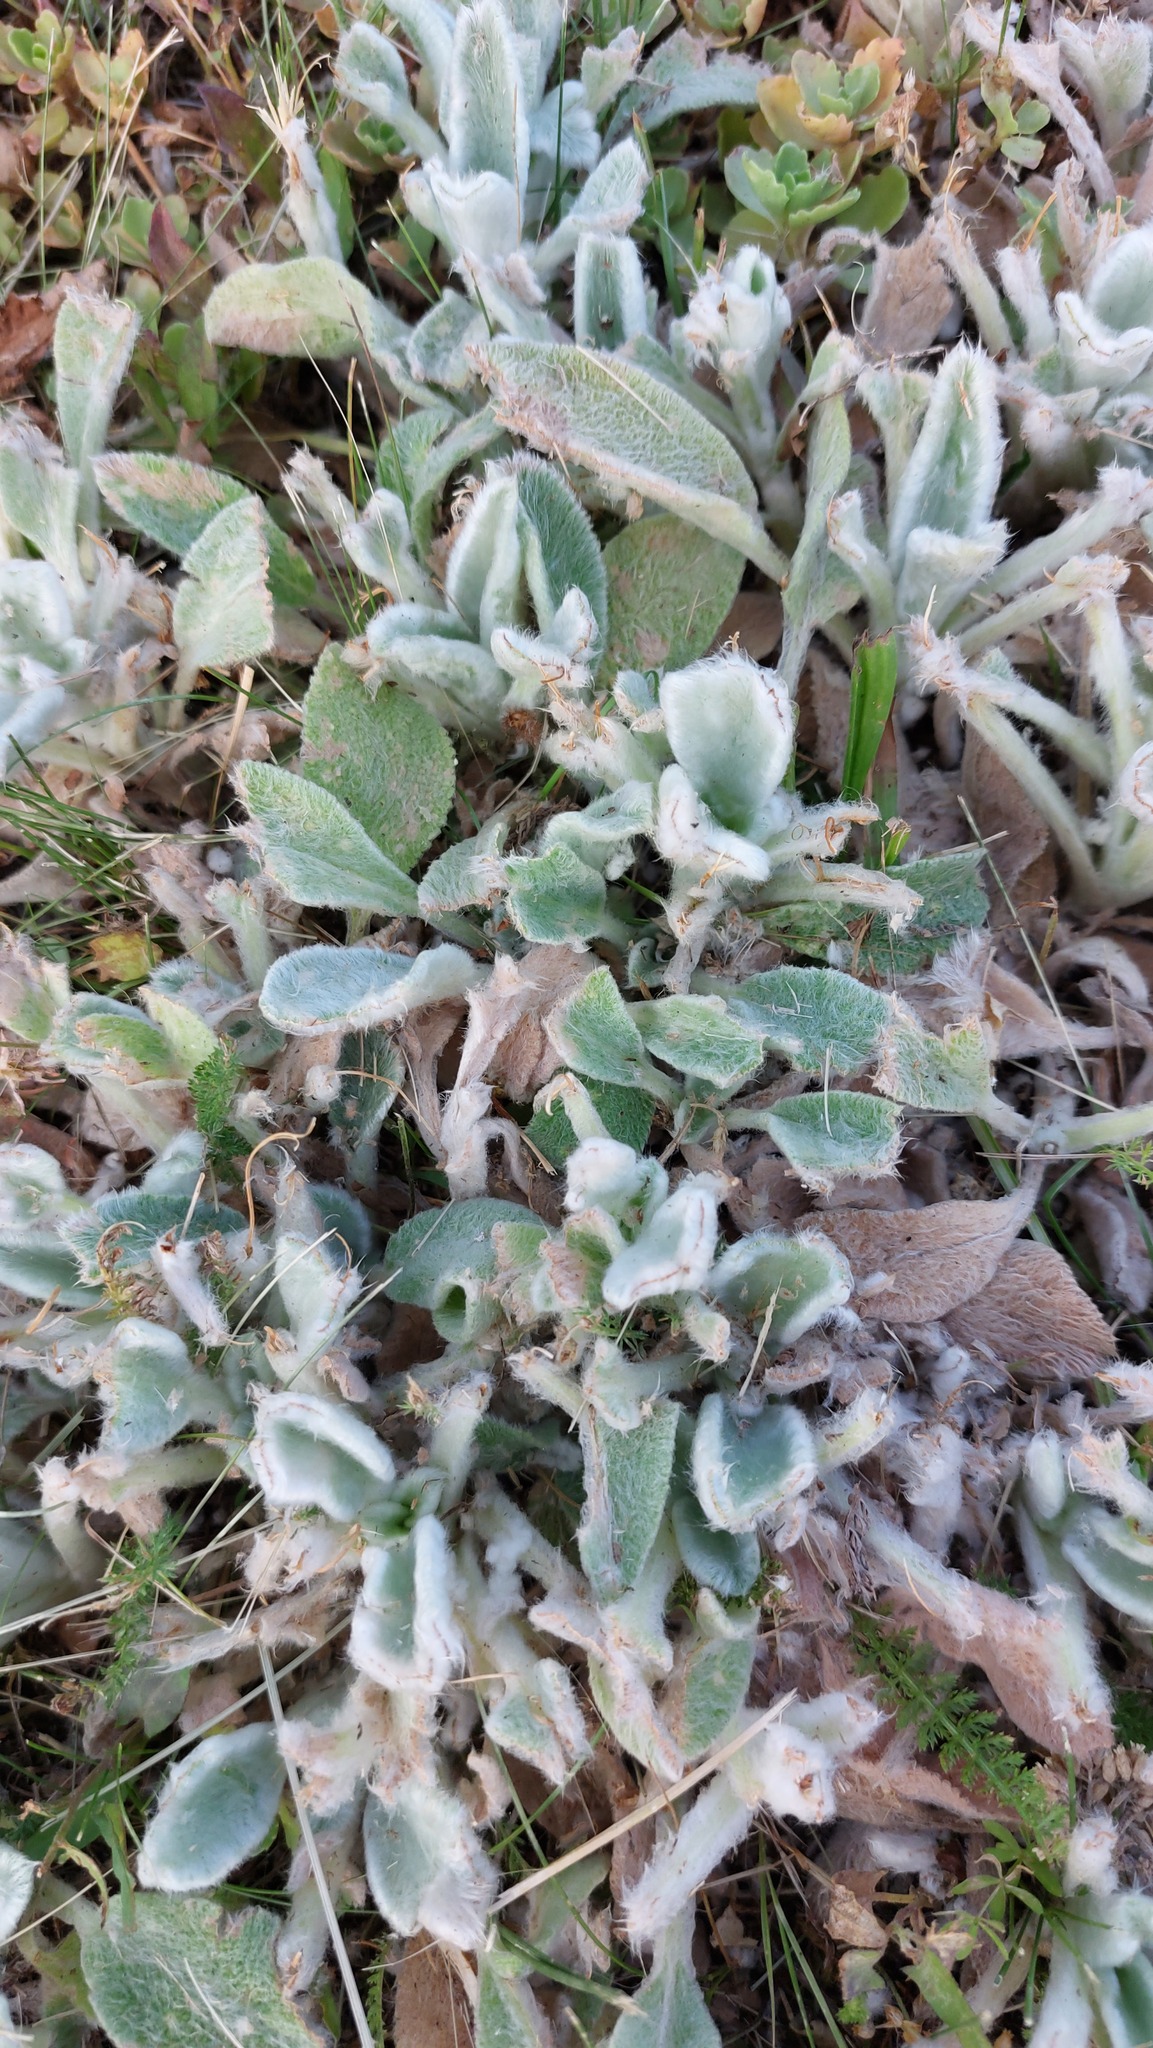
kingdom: Plantae
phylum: Tracheophyta
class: Magnoliopsida
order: Lamiales
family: Lamiaceae
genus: Stachys
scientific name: Stachys byzantina
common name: Lamb's-ear
